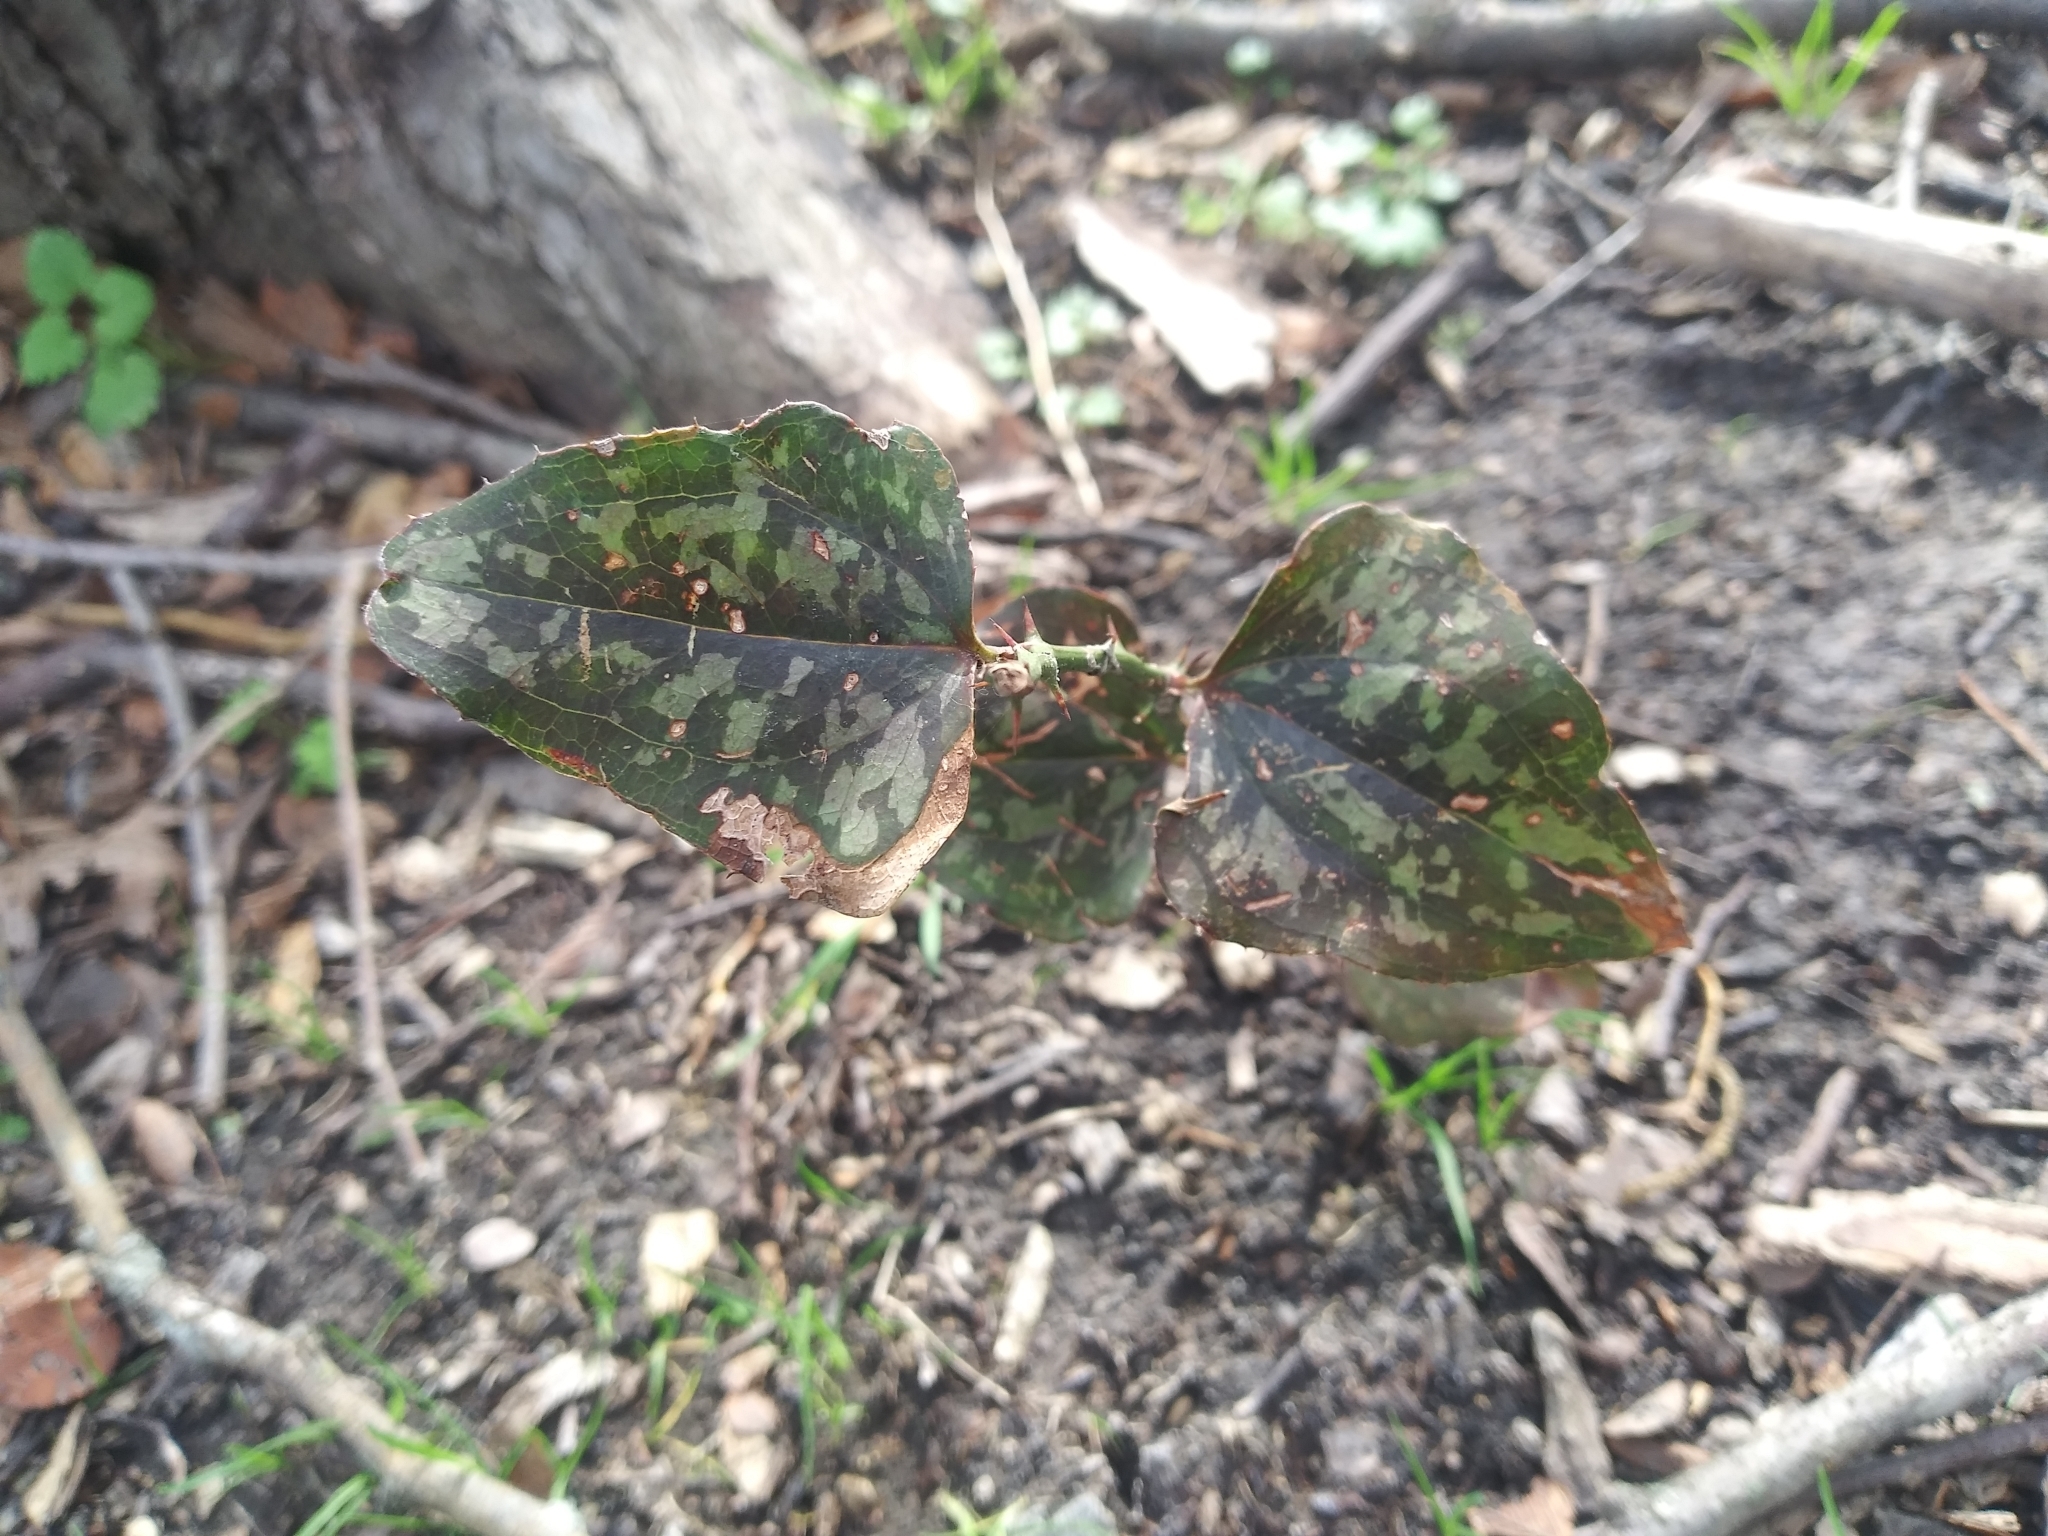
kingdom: Plantae
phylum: Tracheophyta
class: Liliopsida
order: Liliales
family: Smilacaceae
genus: Smilax
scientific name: Smilax bona-nox
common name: Catbrier
